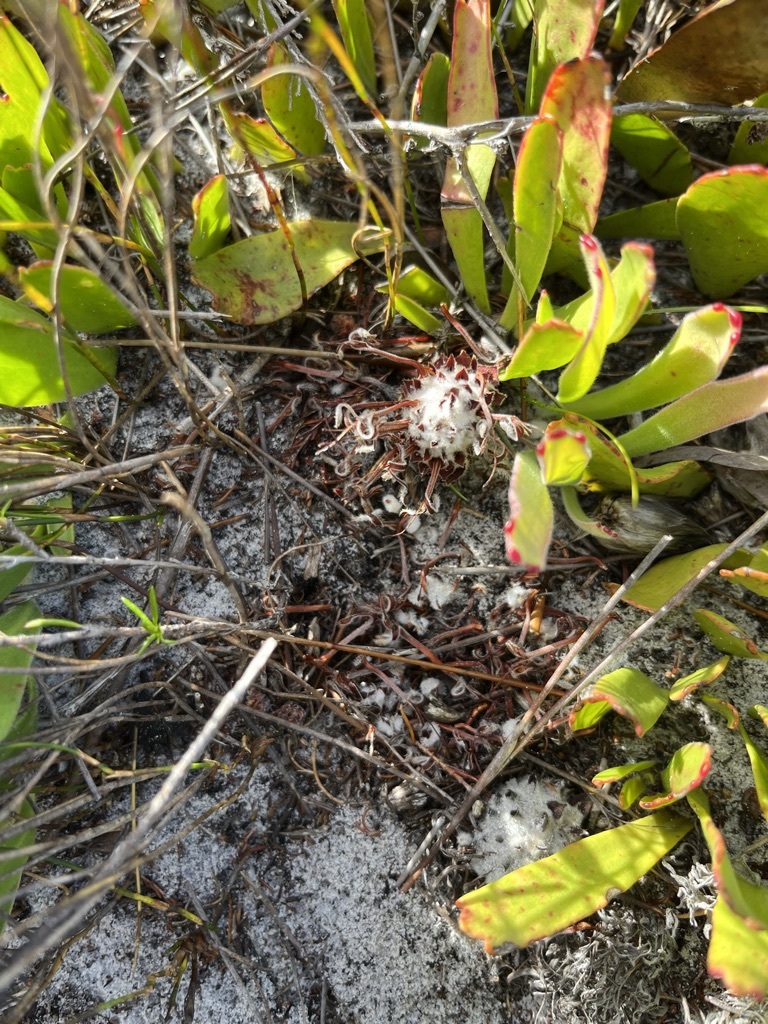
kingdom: Plantae
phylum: Tracheophyta
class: Magnoliopsida
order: Proteales
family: Proteaceae
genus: Leucospermum
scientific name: Leucospermum hypophyllocarpodendron
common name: Snakestem pincushion
